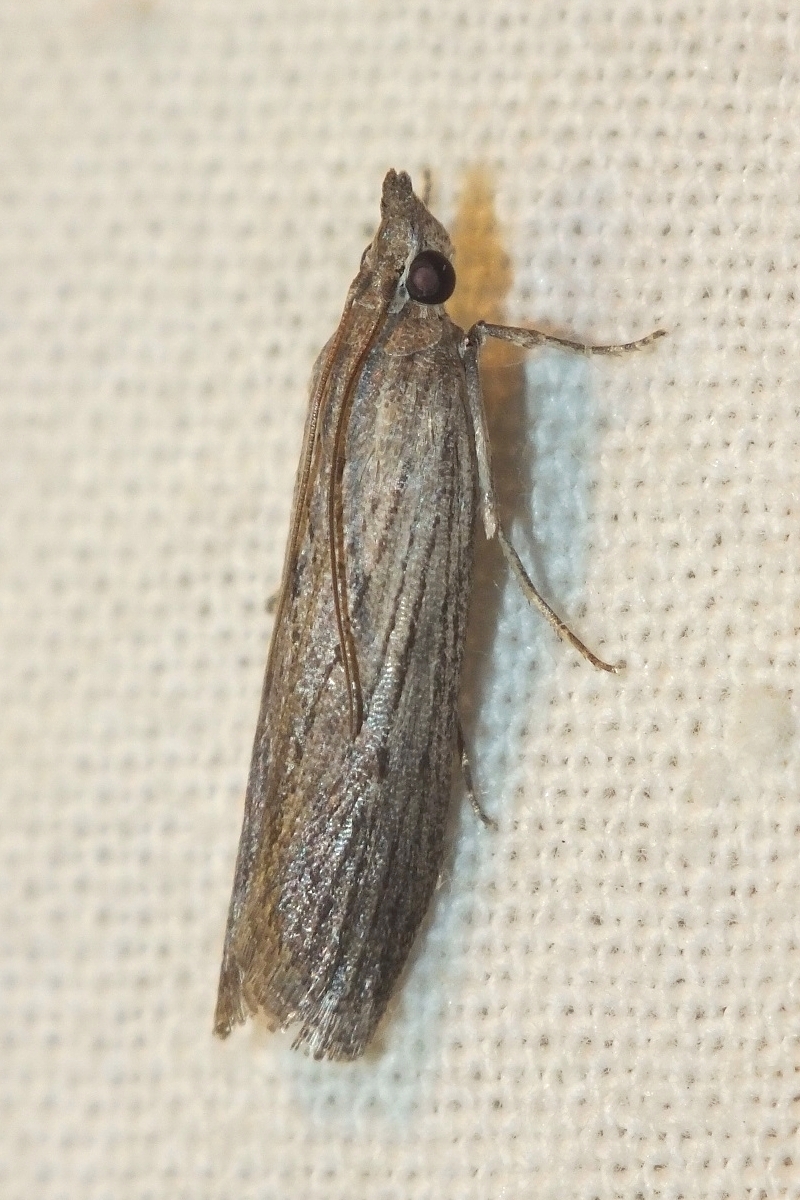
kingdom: Animalia
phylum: Arthropoda
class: Insecta
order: Lepidoptera
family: Pyralidae
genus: Epischnia
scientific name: Epischnia prodromella
